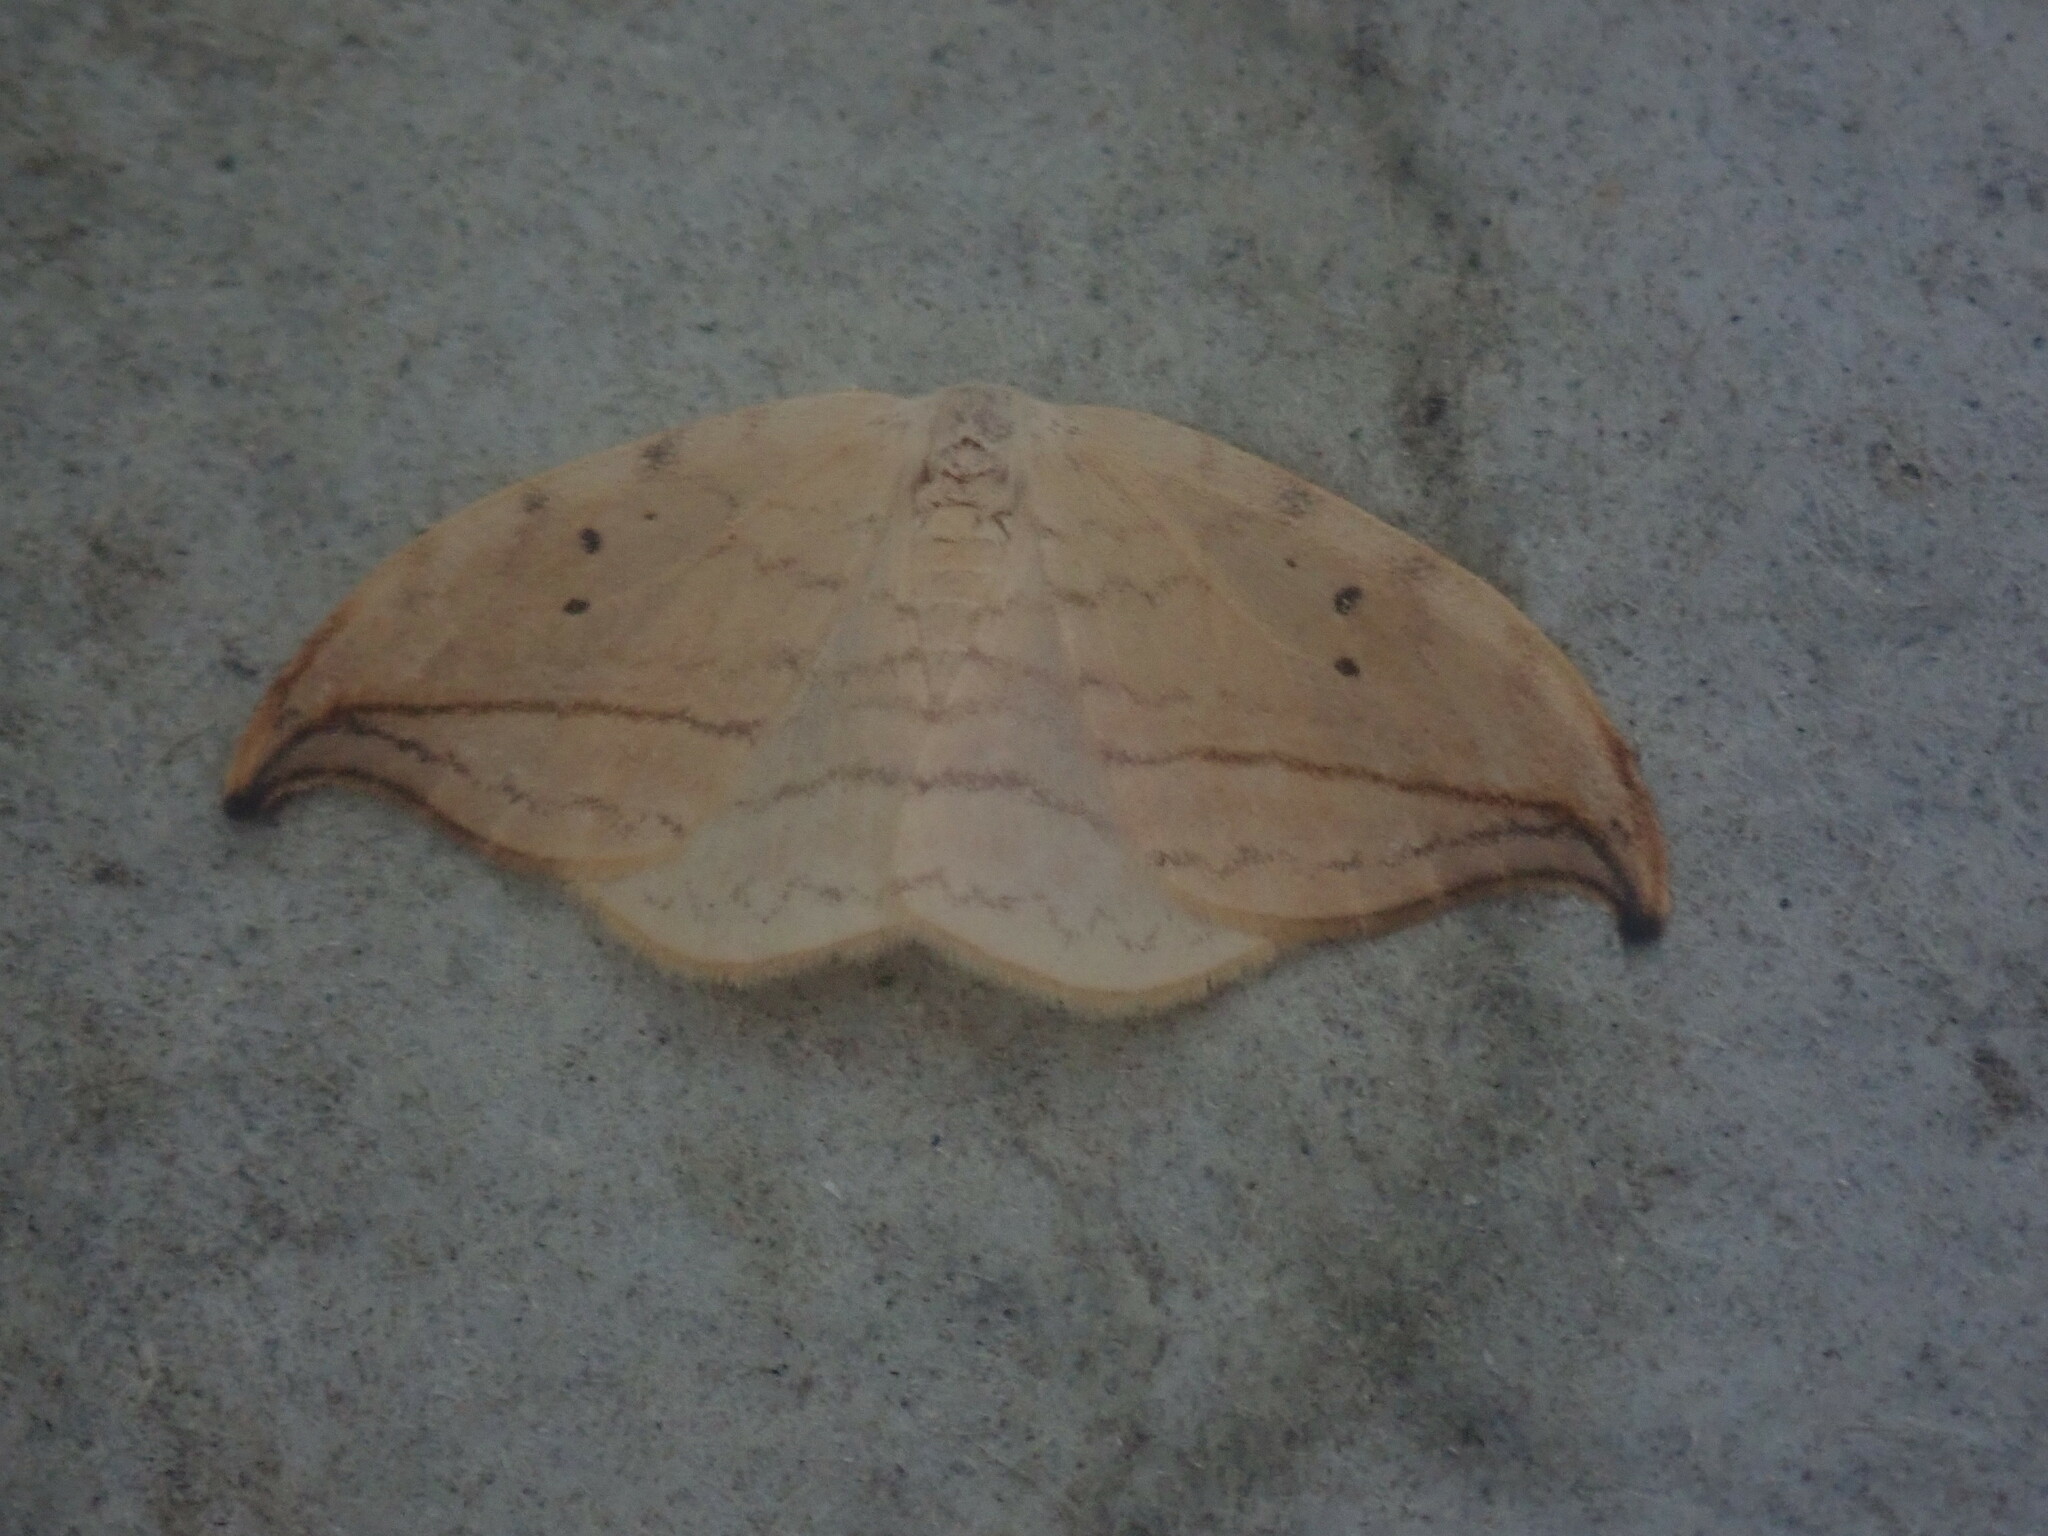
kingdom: Animalia
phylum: Arthropoda
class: Insecta
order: Lepidoptera
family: Drepanidae
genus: Drepana
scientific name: Drepana arcuata
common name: Arched hooktip moth
